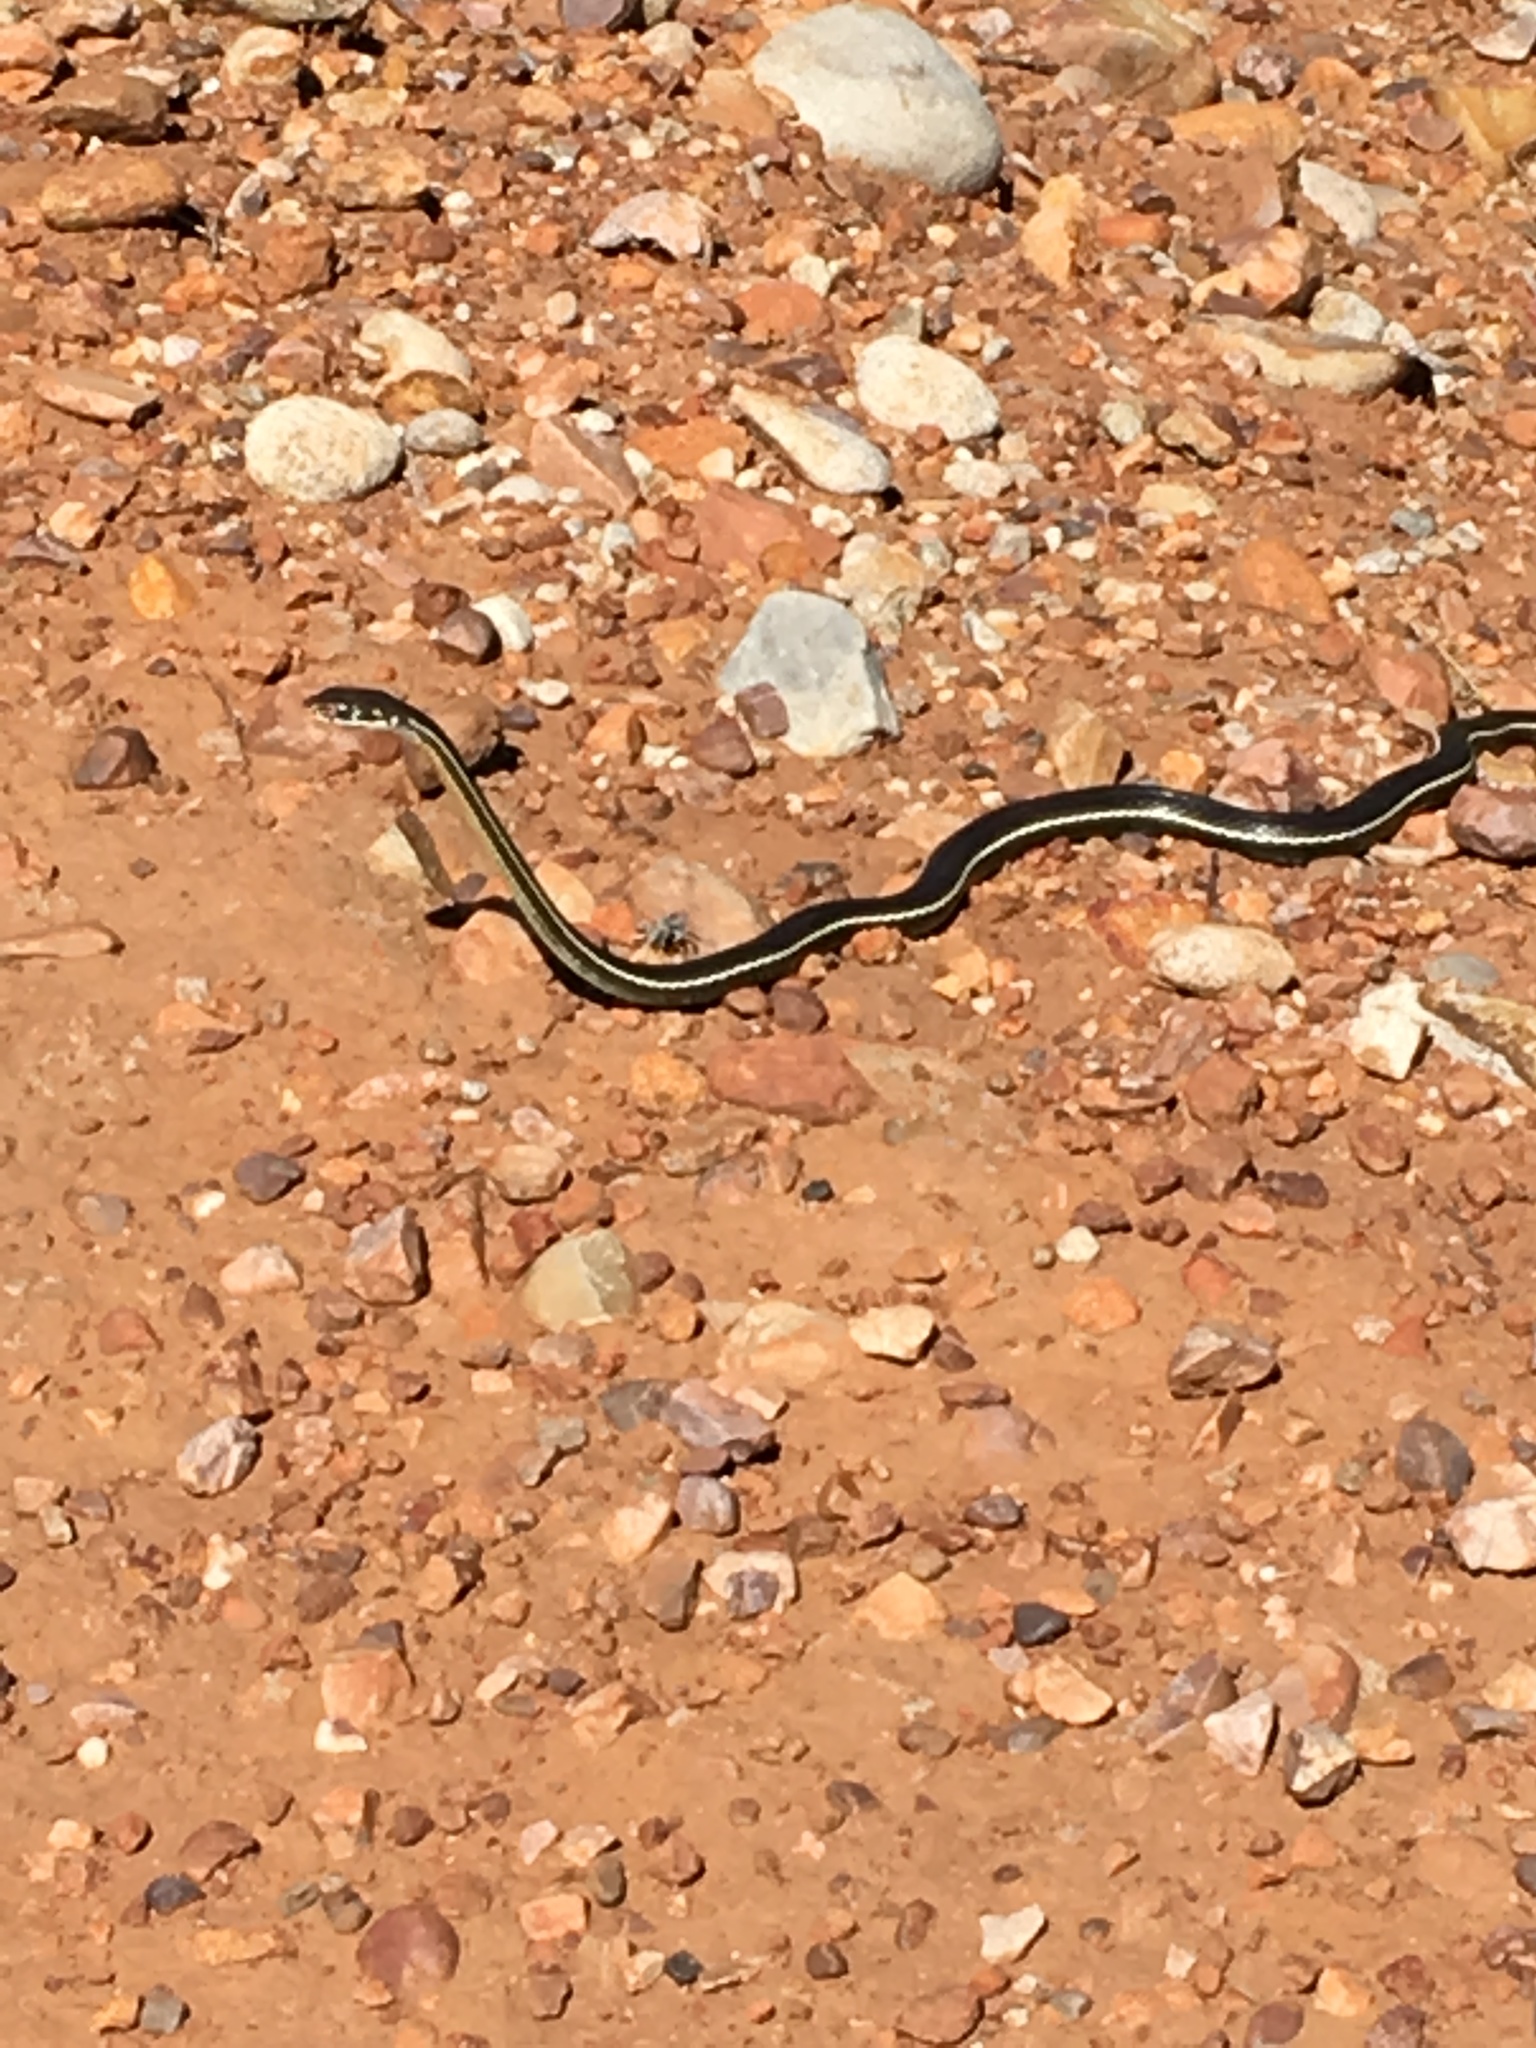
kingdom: Animalia
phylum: Chordata
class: Squamata
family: Colubridae
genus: Masticophis
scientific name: Masticophis lateralis
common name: Striped racer
